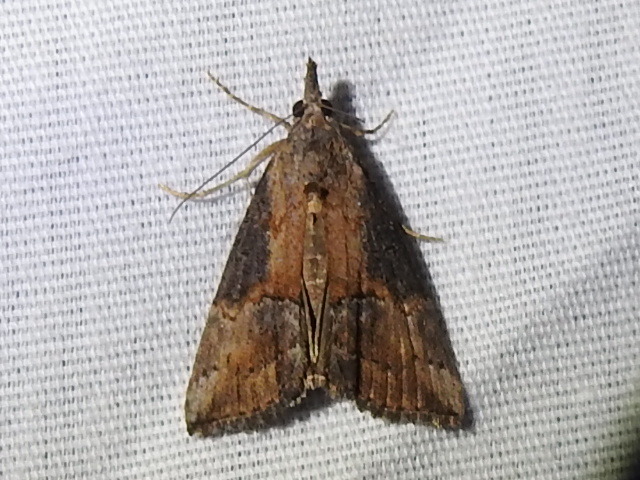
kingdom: Animalia
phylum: Arthropoda
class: Insecta
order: Lepidoptera
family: Erebidae
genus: Hypena
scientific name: Hypena scabra
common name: Green cloverworm
